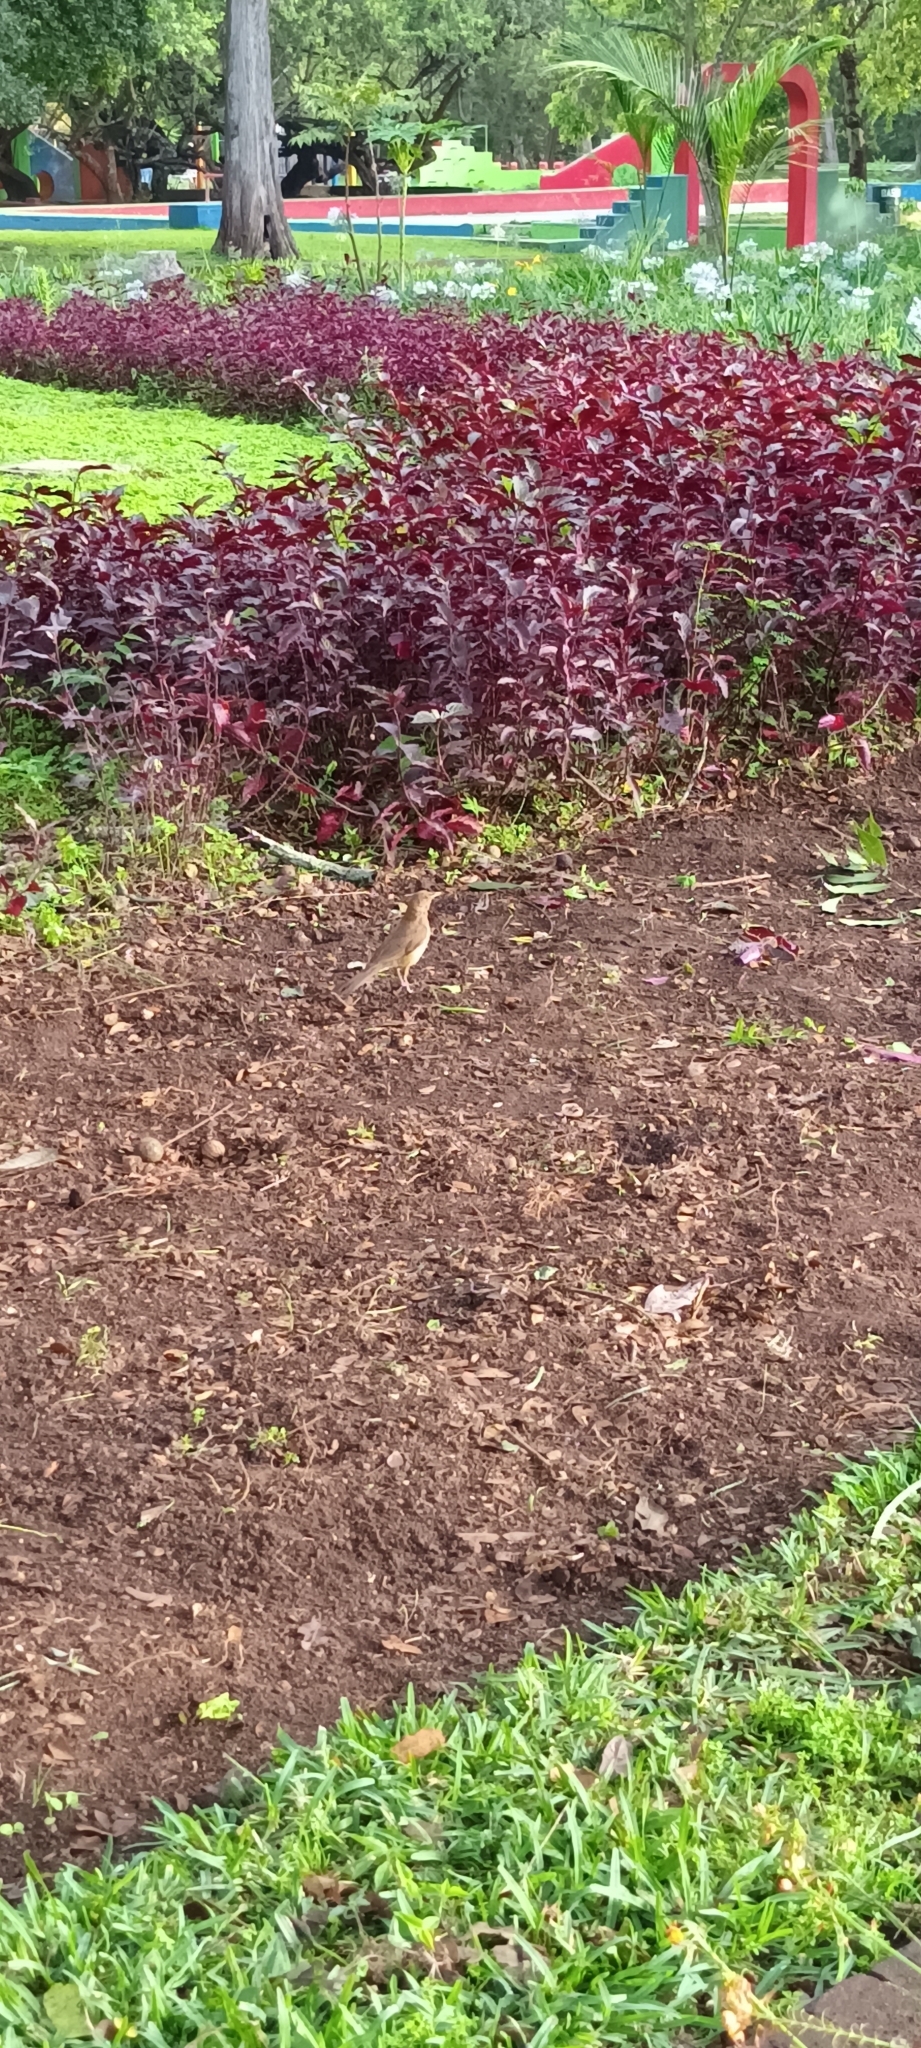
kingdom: Animalia
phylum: Chordata
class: Aves
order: Passeriformes
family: Turdidae
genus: Turdus
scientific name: Turdus grayi
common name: Clay-colored thrush
